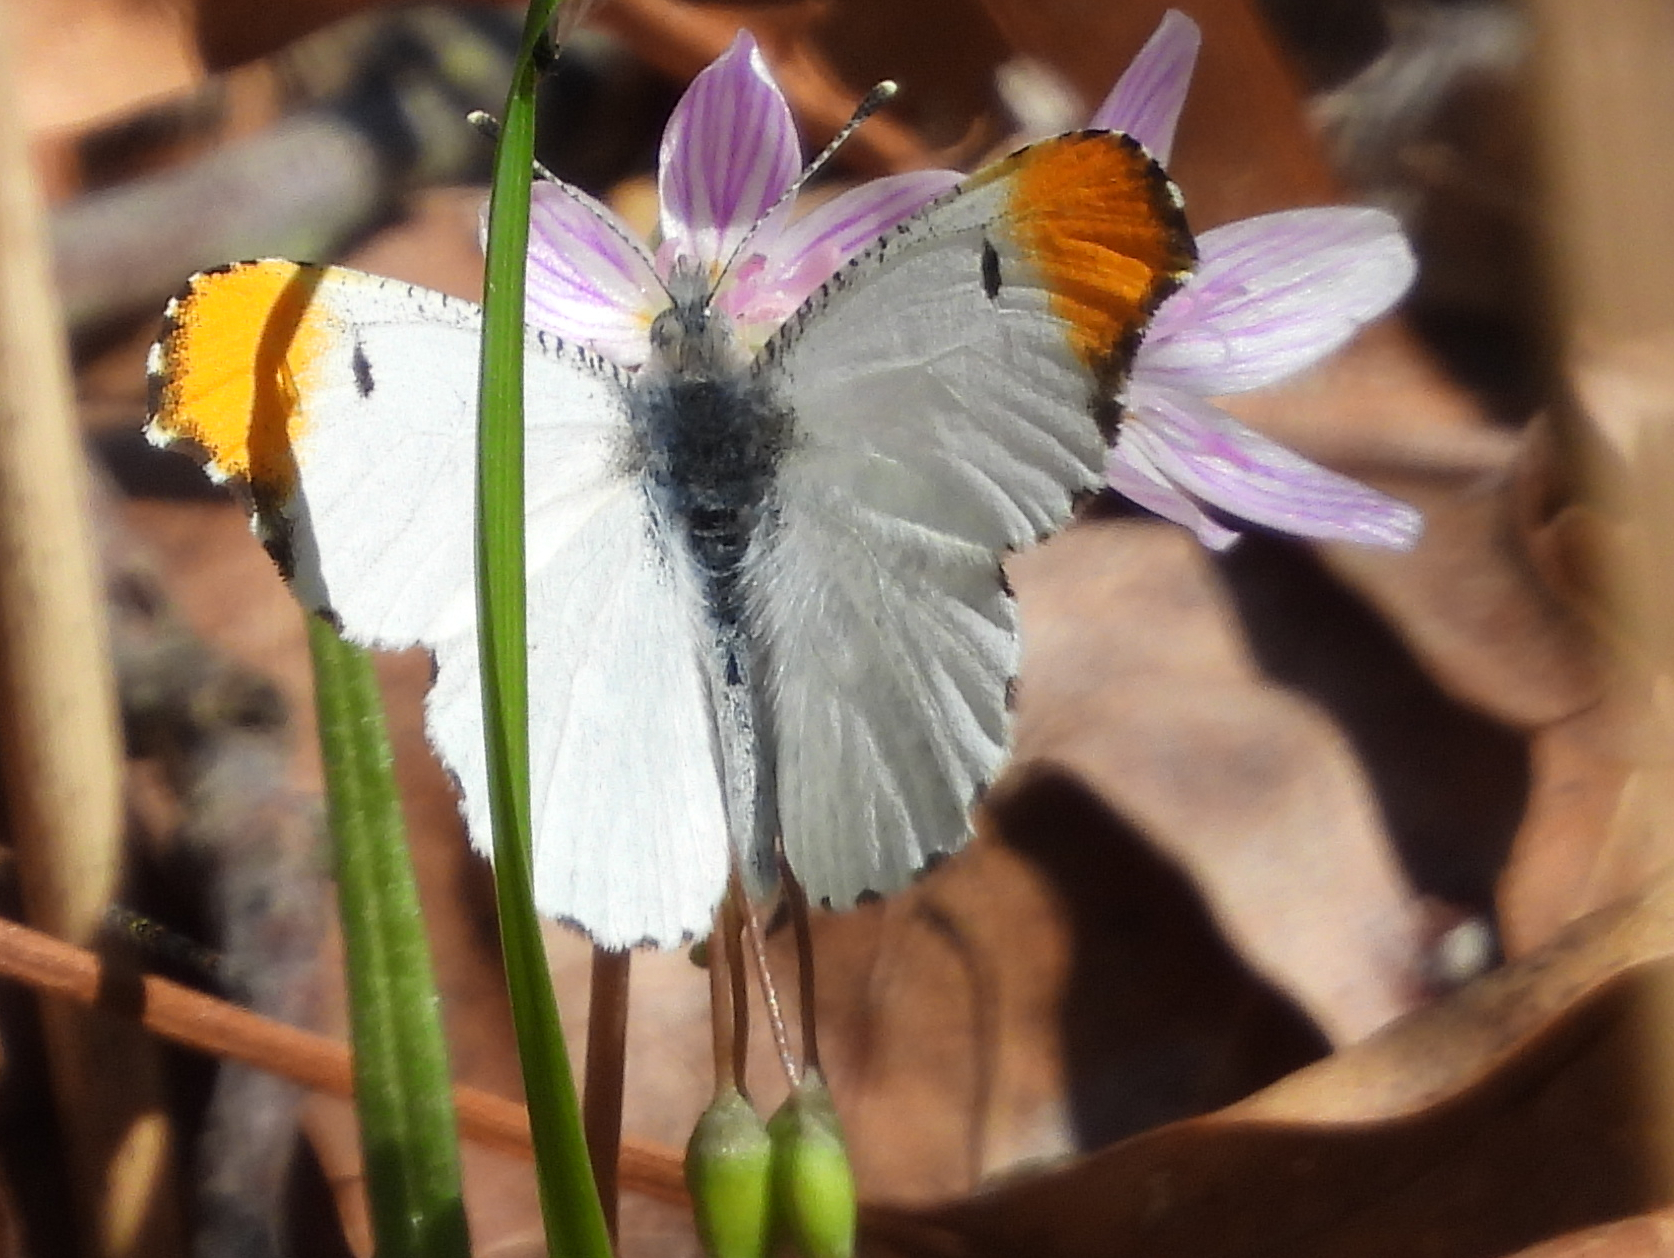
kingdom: Animalia
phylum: Arthropoda
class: Insecta
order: Lepidoptera
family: Pieridae
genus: Anthocharis
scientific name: Anthocharis midea
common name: Falcate orangetip
